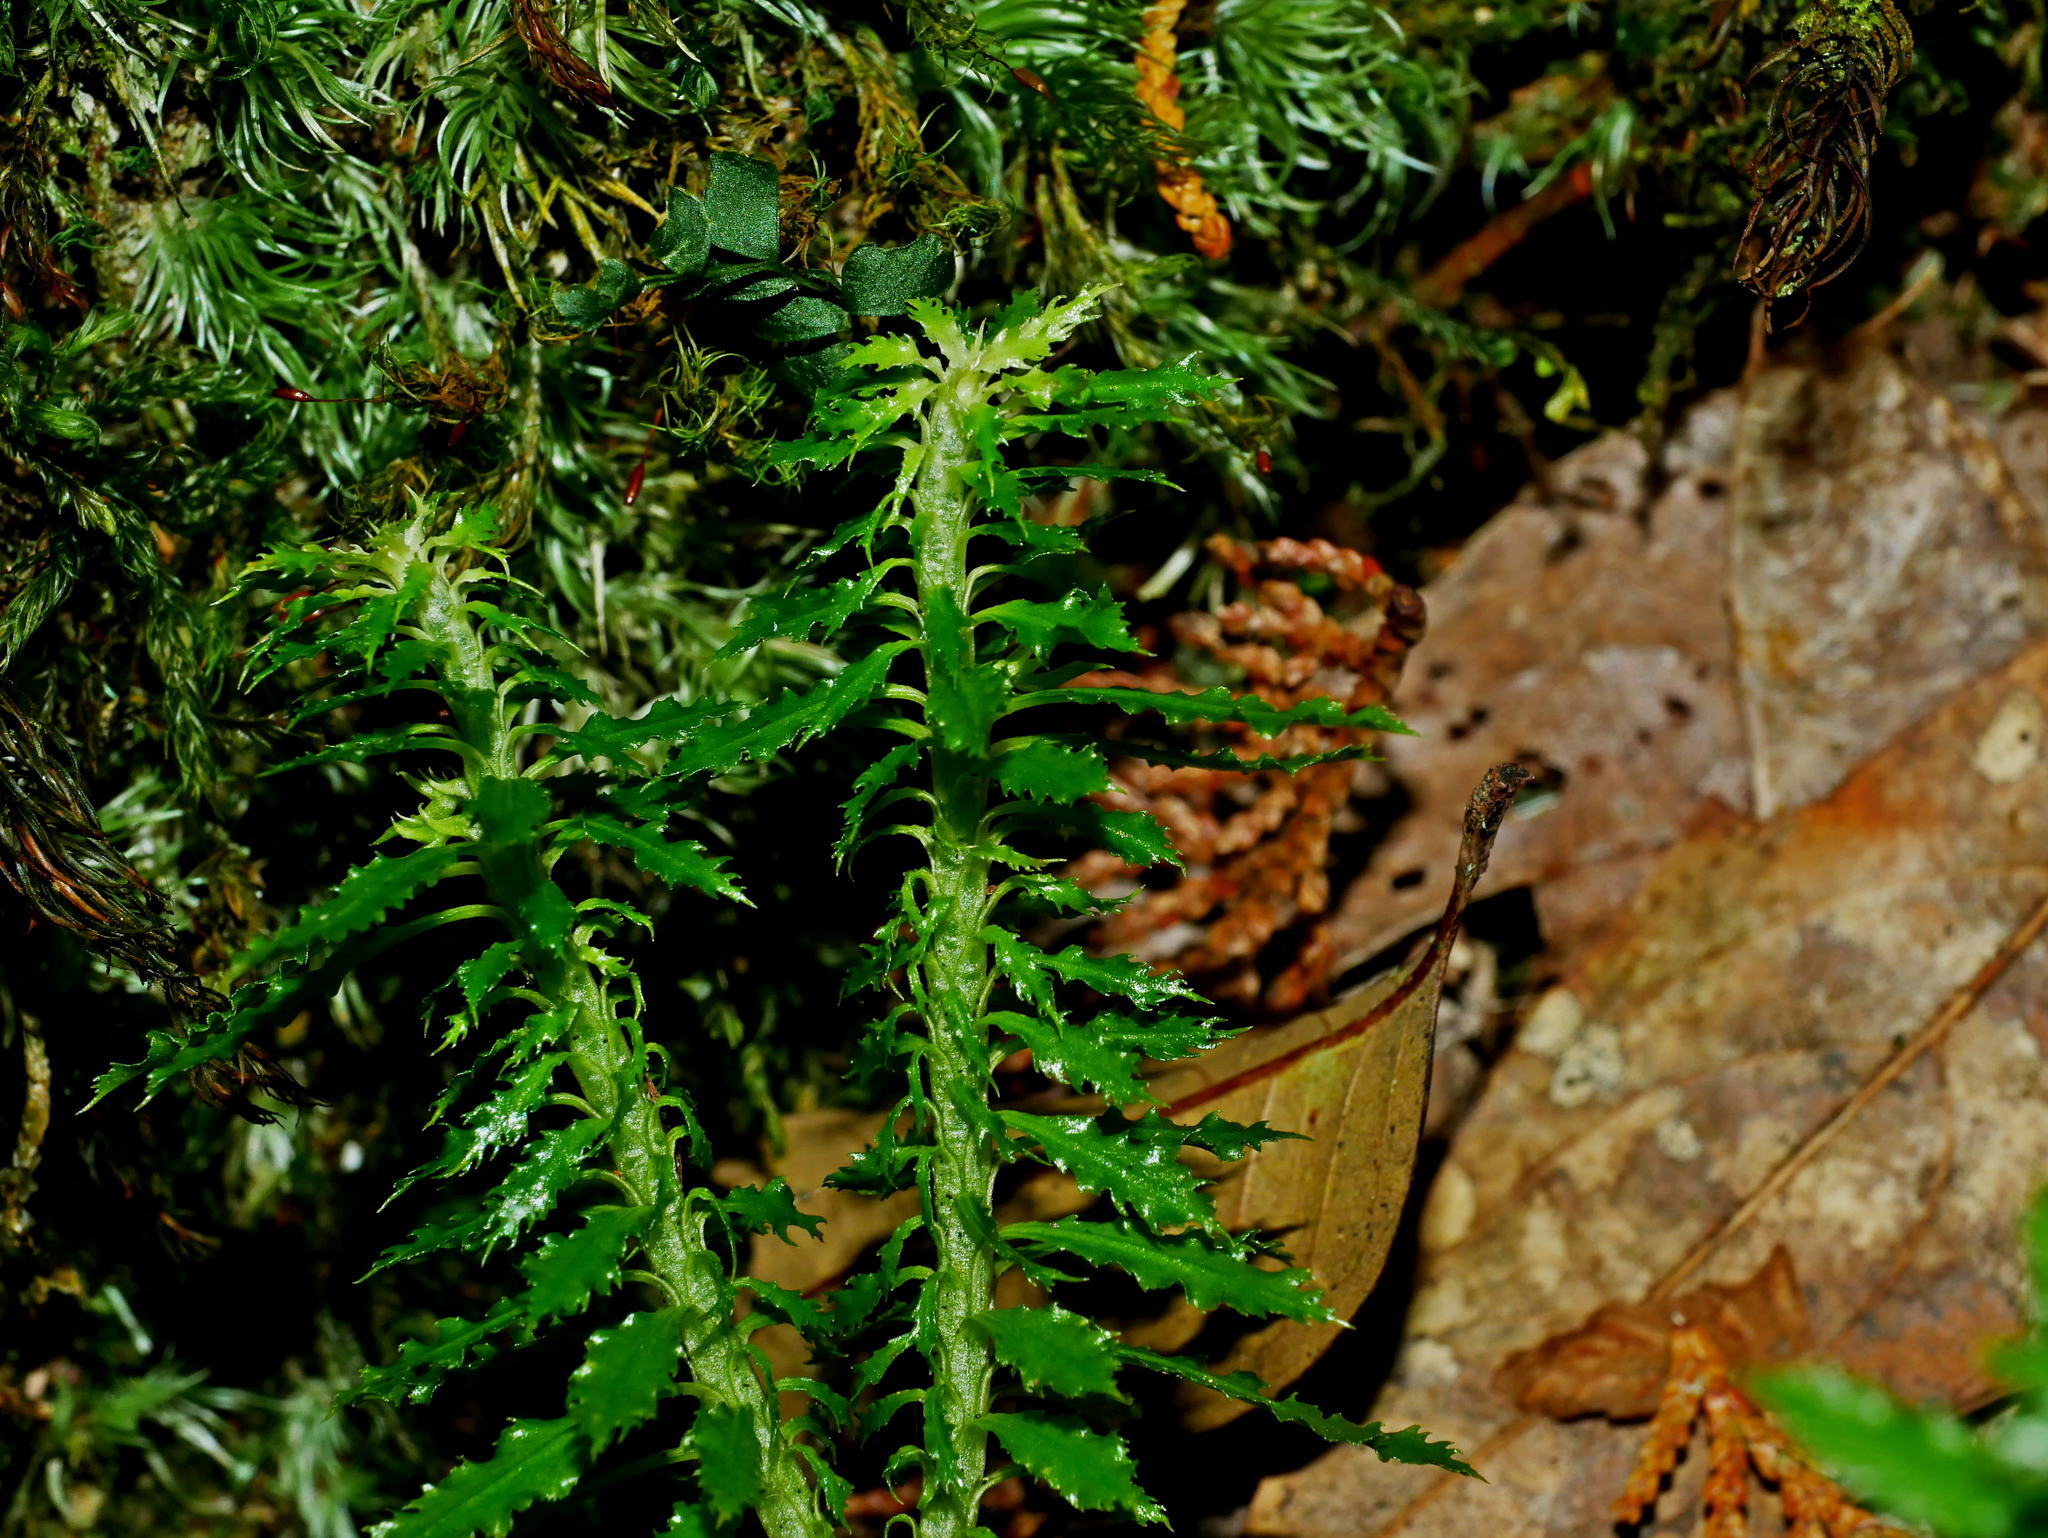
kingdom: Plantae
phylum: Tracheophyta
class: Lycopodiopsida
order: Lycopodiales
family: Lycopodiaceae
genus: Huperzia
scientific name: Huperzia serrata
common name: Toothed club-moss
